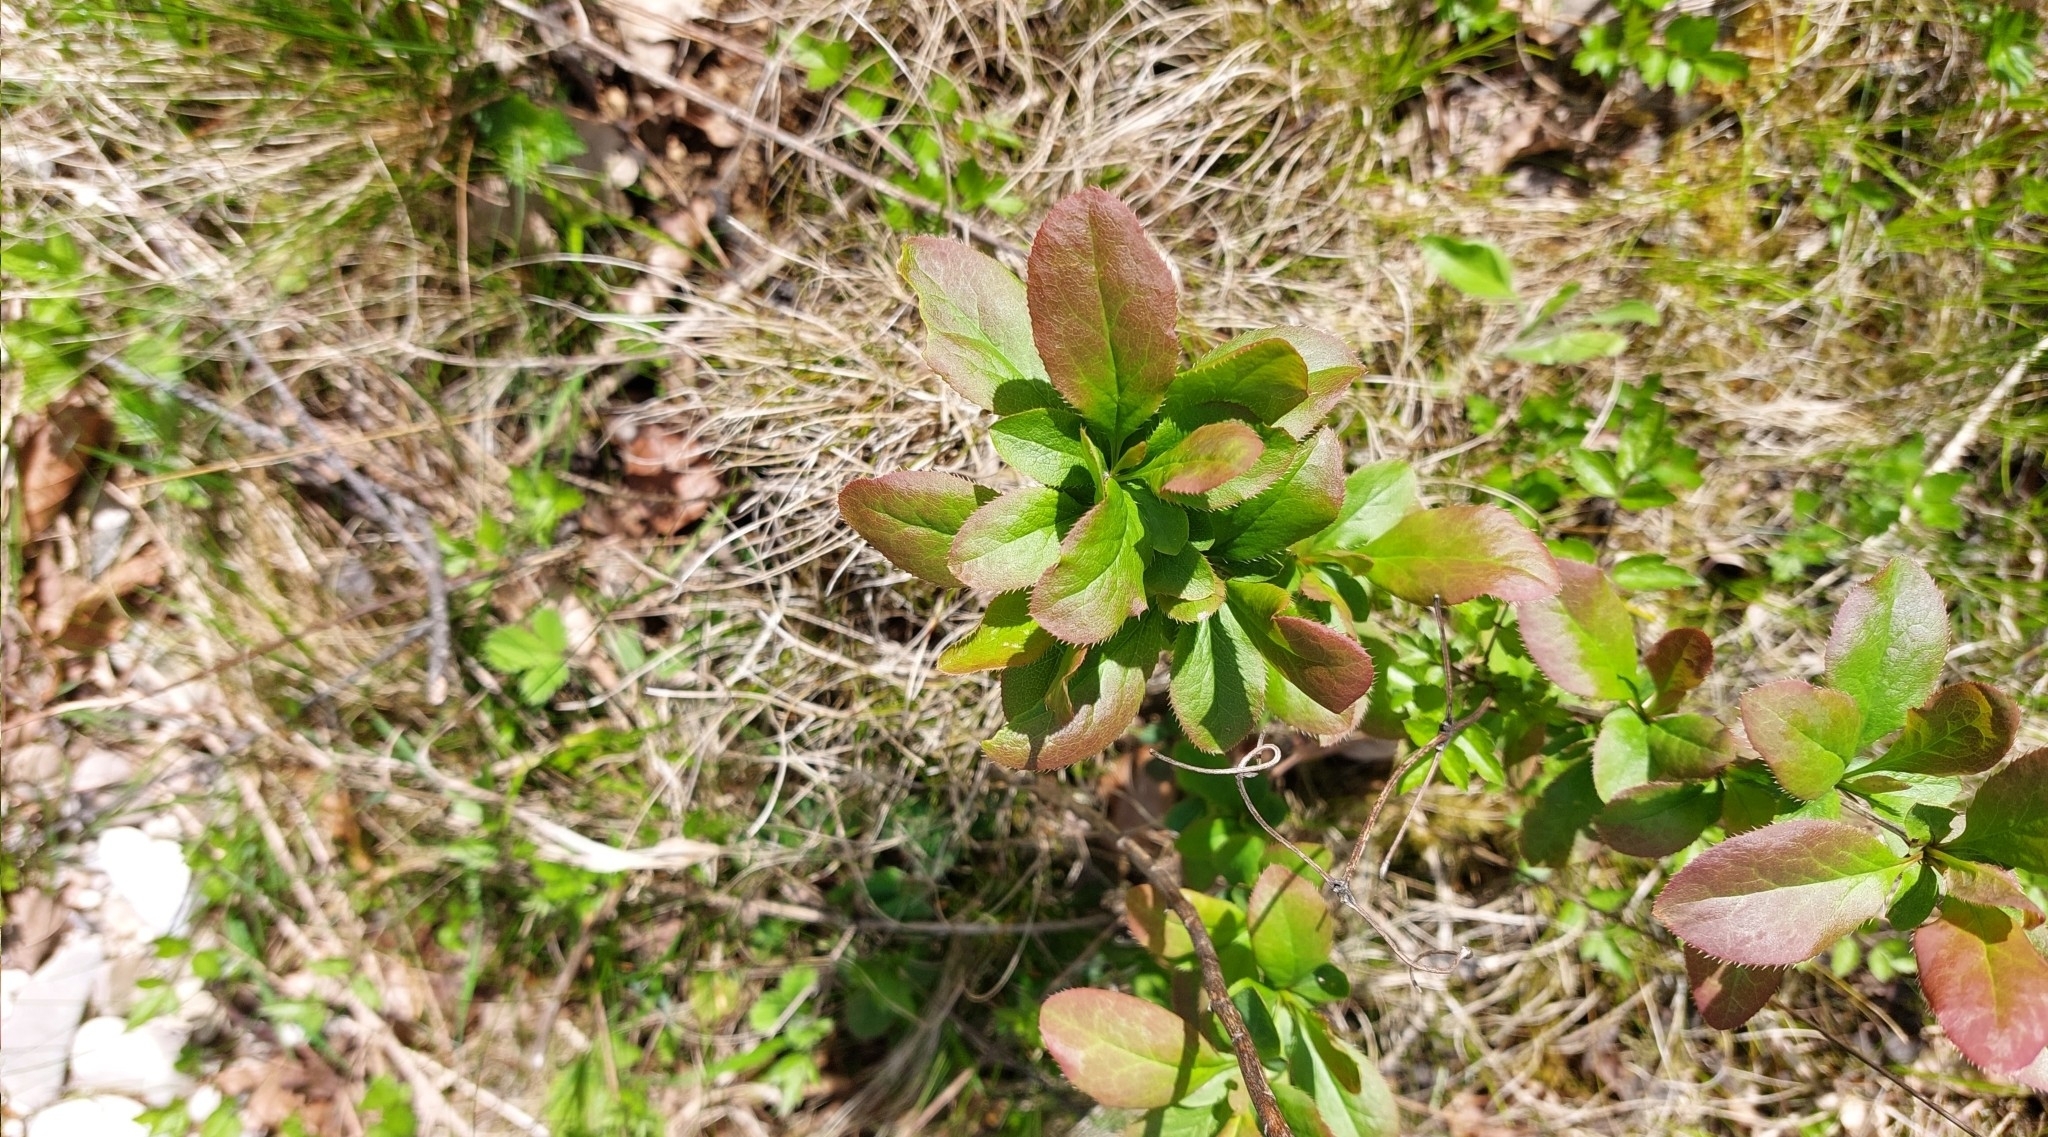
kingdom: Plantae
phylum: Tracheophyta
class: Magnoliopsida
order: Ranunculales
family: Berberidaceae
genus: Berberis
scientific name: Berberis vulgaris
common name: Barberry
